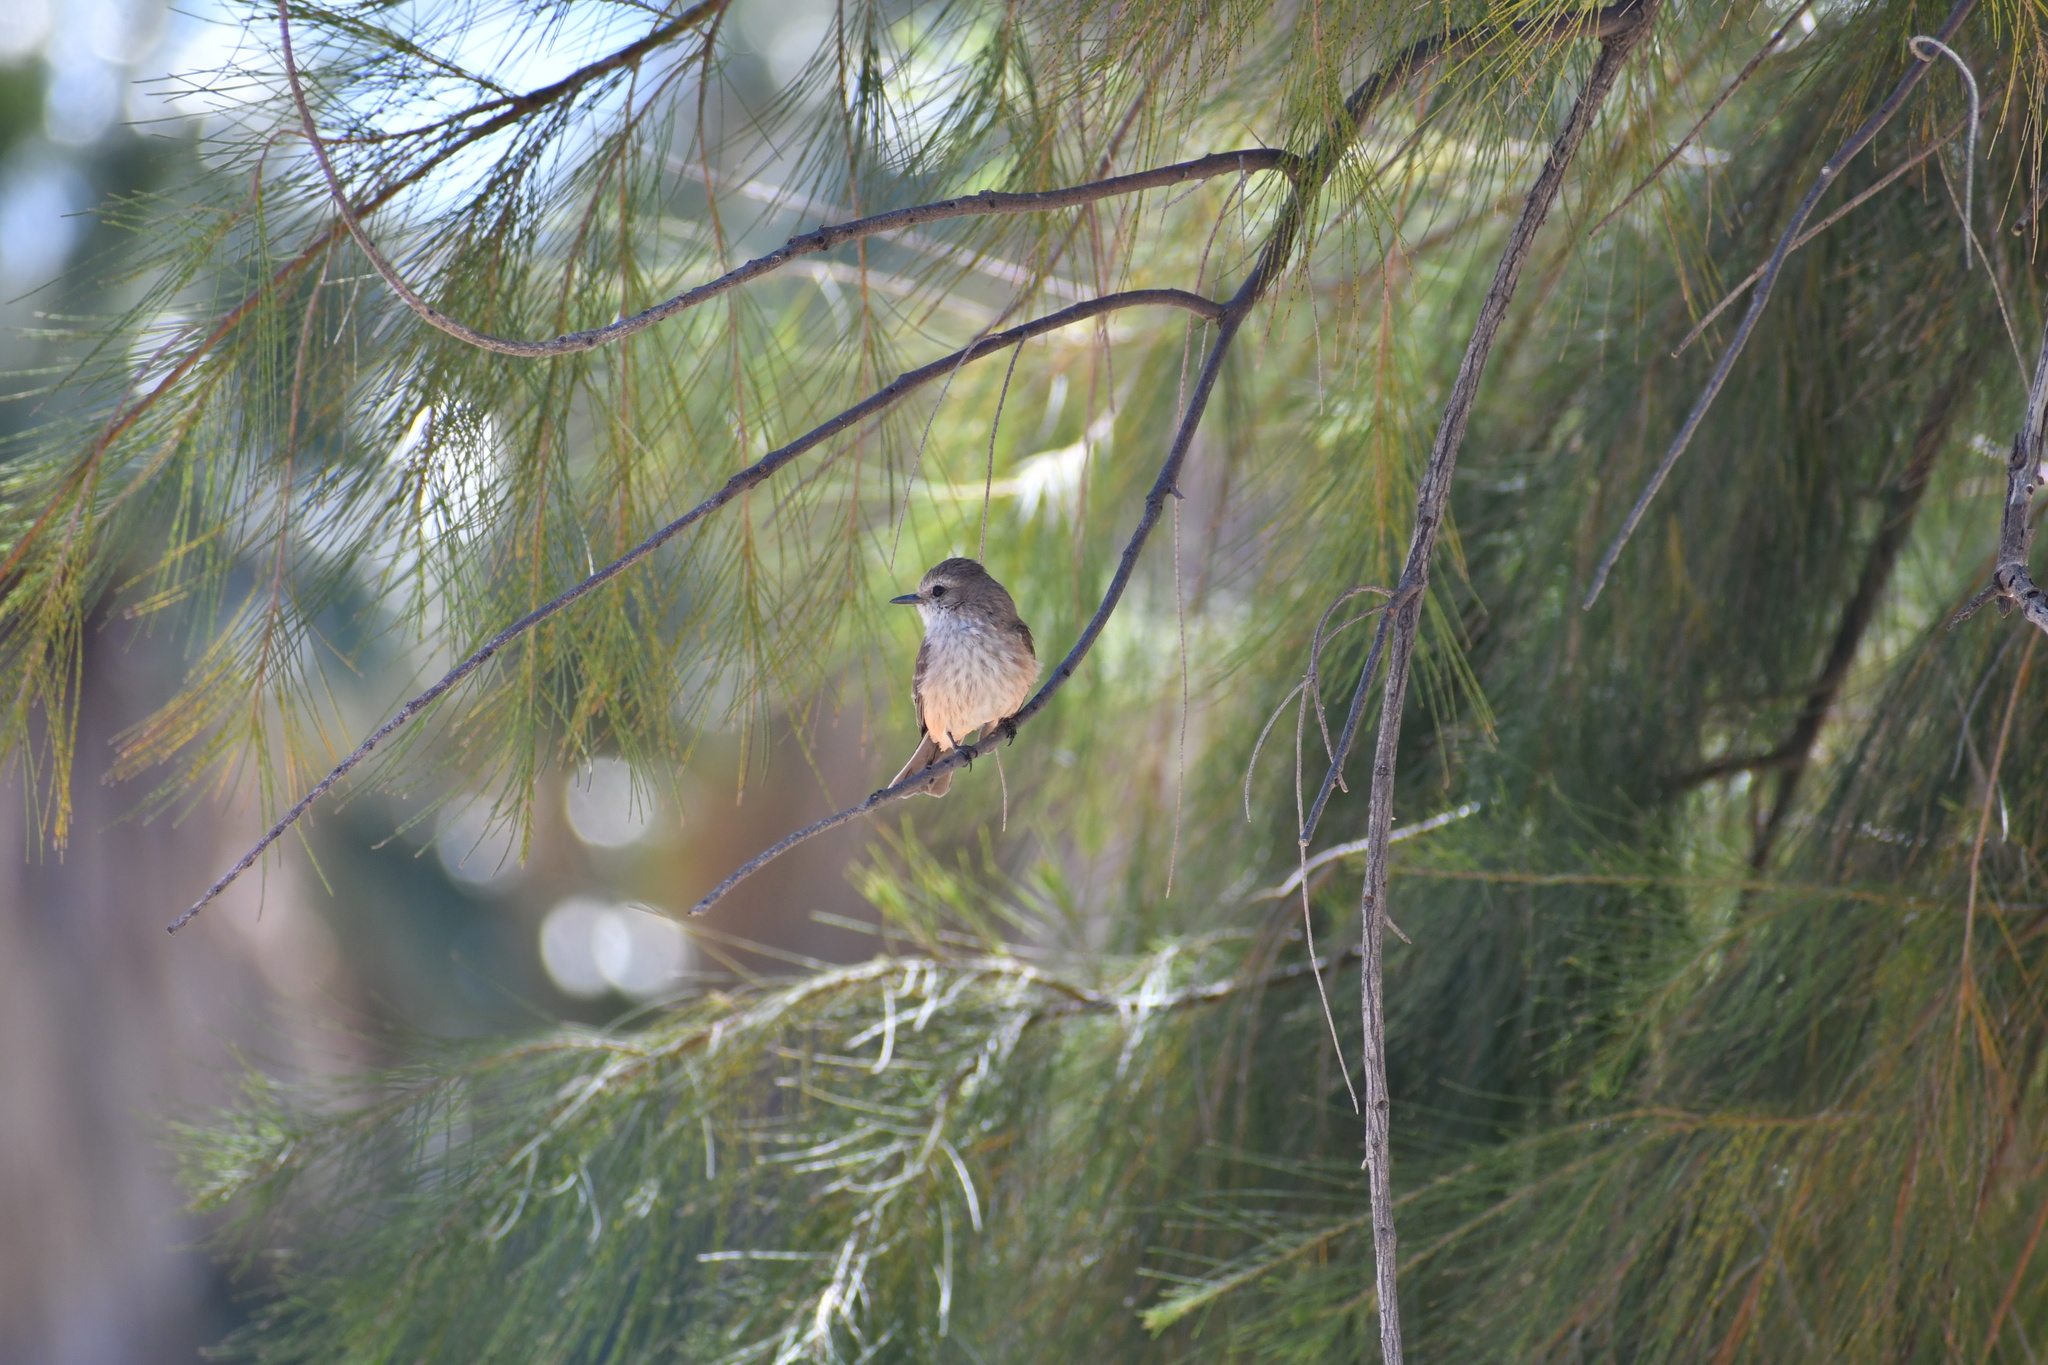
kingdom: Animalia
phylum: Chordata
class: Aves
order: Passeriformes
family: Tyrannidae
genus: Pyrocephalus
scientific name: Pyrocephalus rubinus
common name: Vermilion flycatcher
